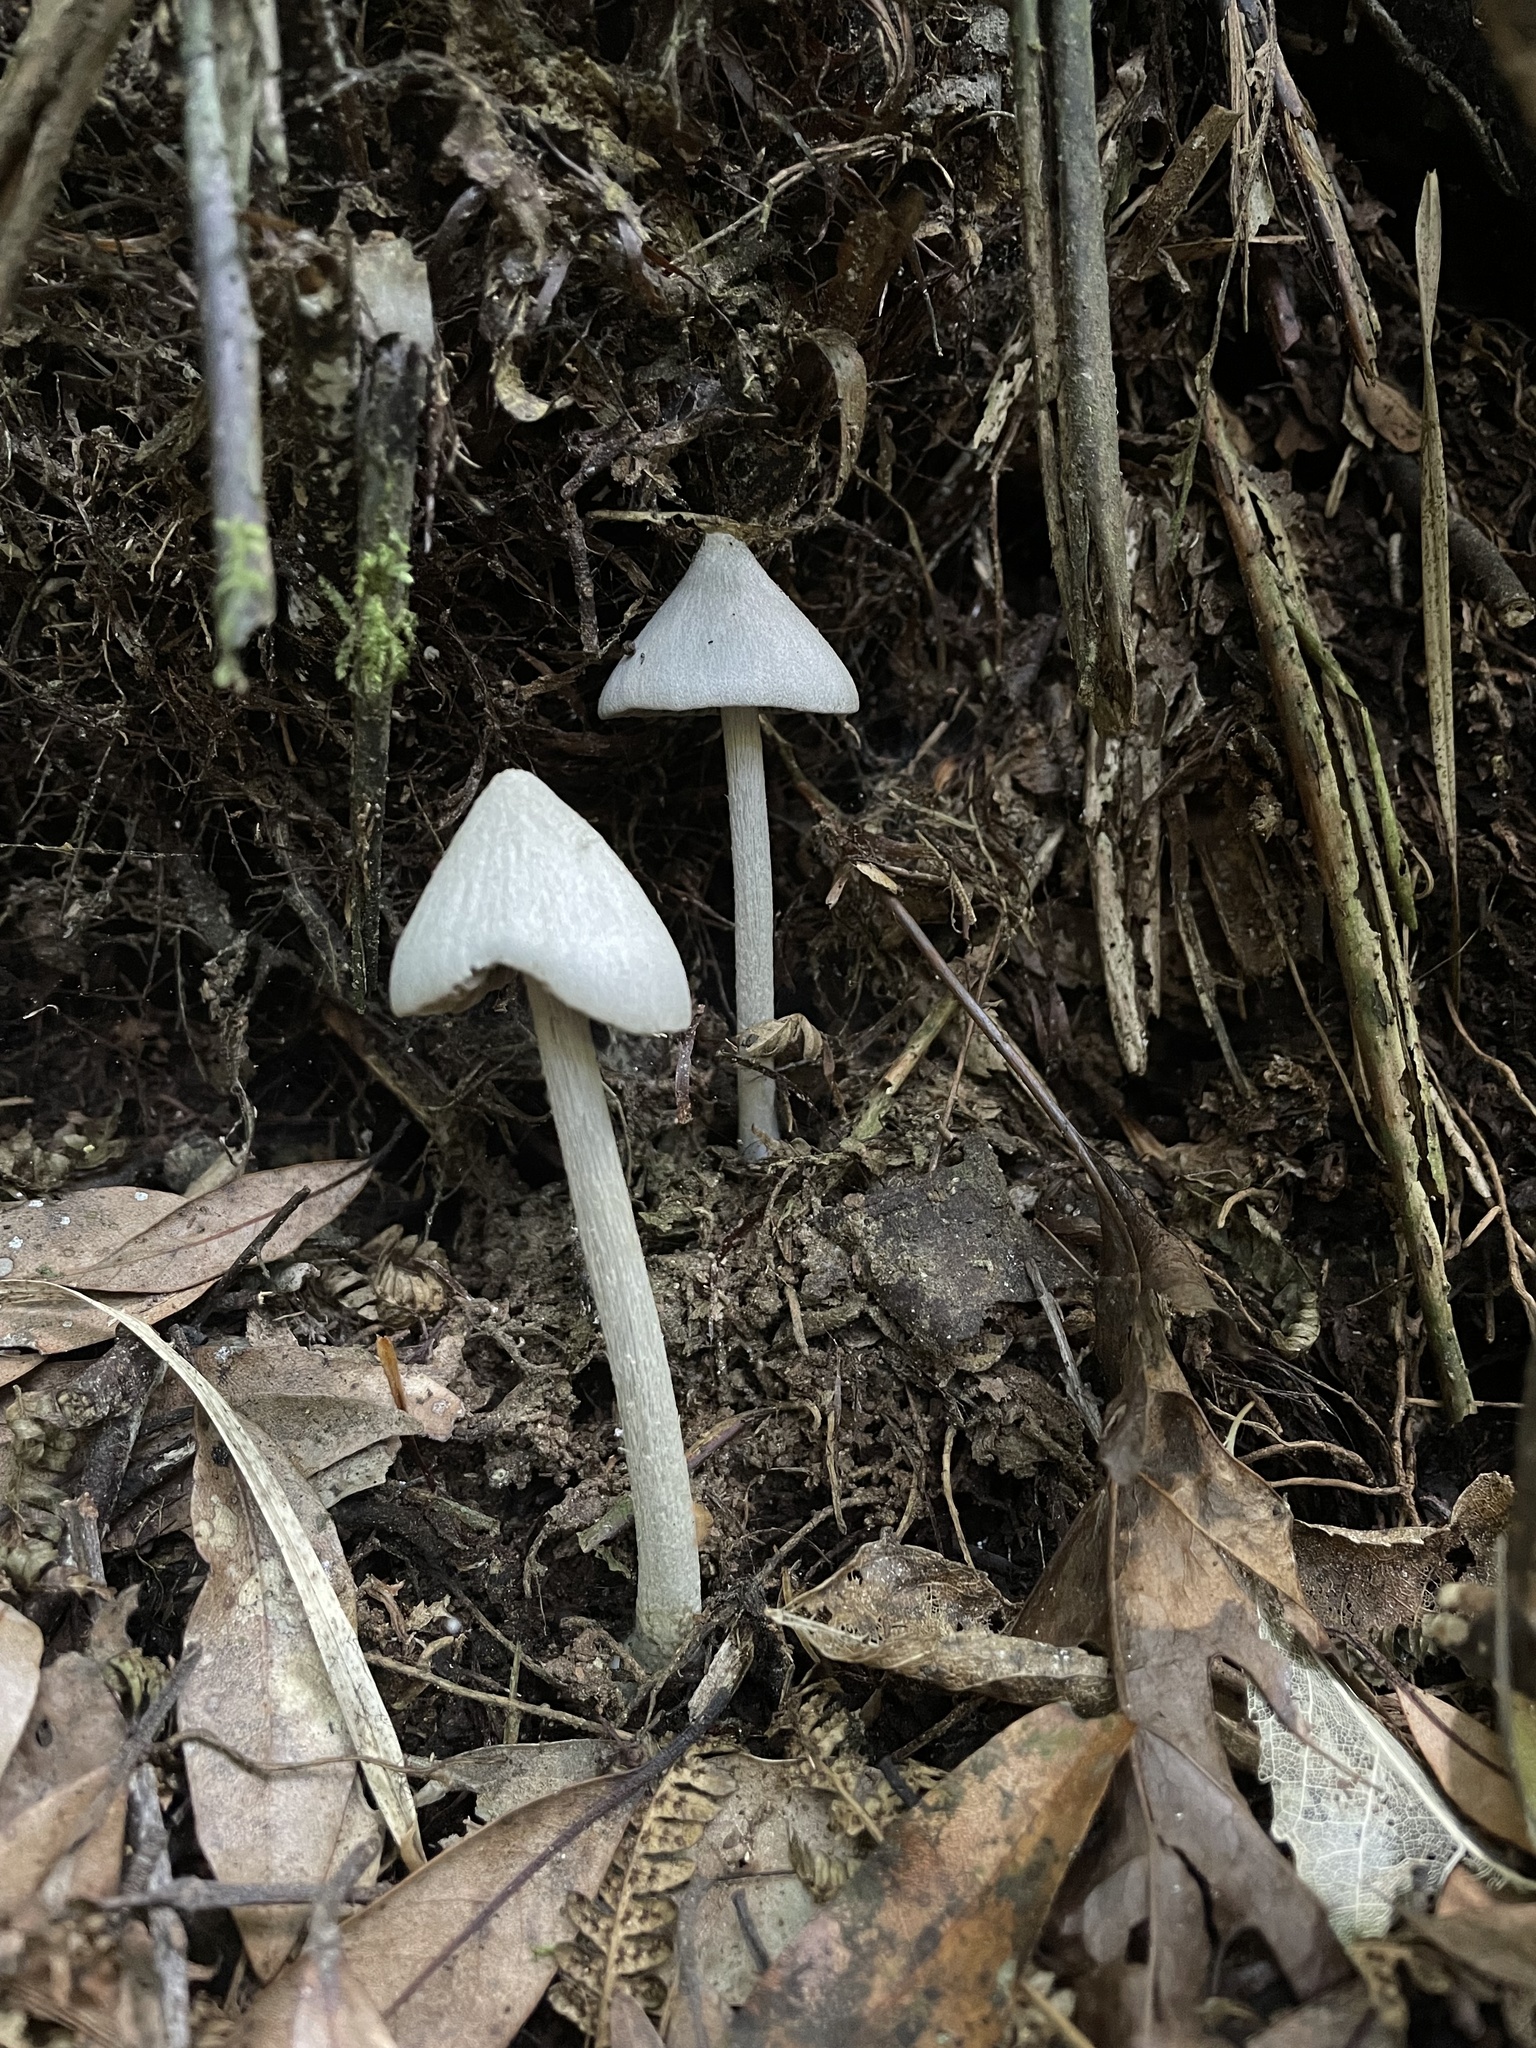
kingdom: Fungi
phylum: Basidiomycota
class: Agaricomycetes
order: Agaricales
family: Entolomataceae
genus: Entoloma
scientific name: Entoloma canoconicum
